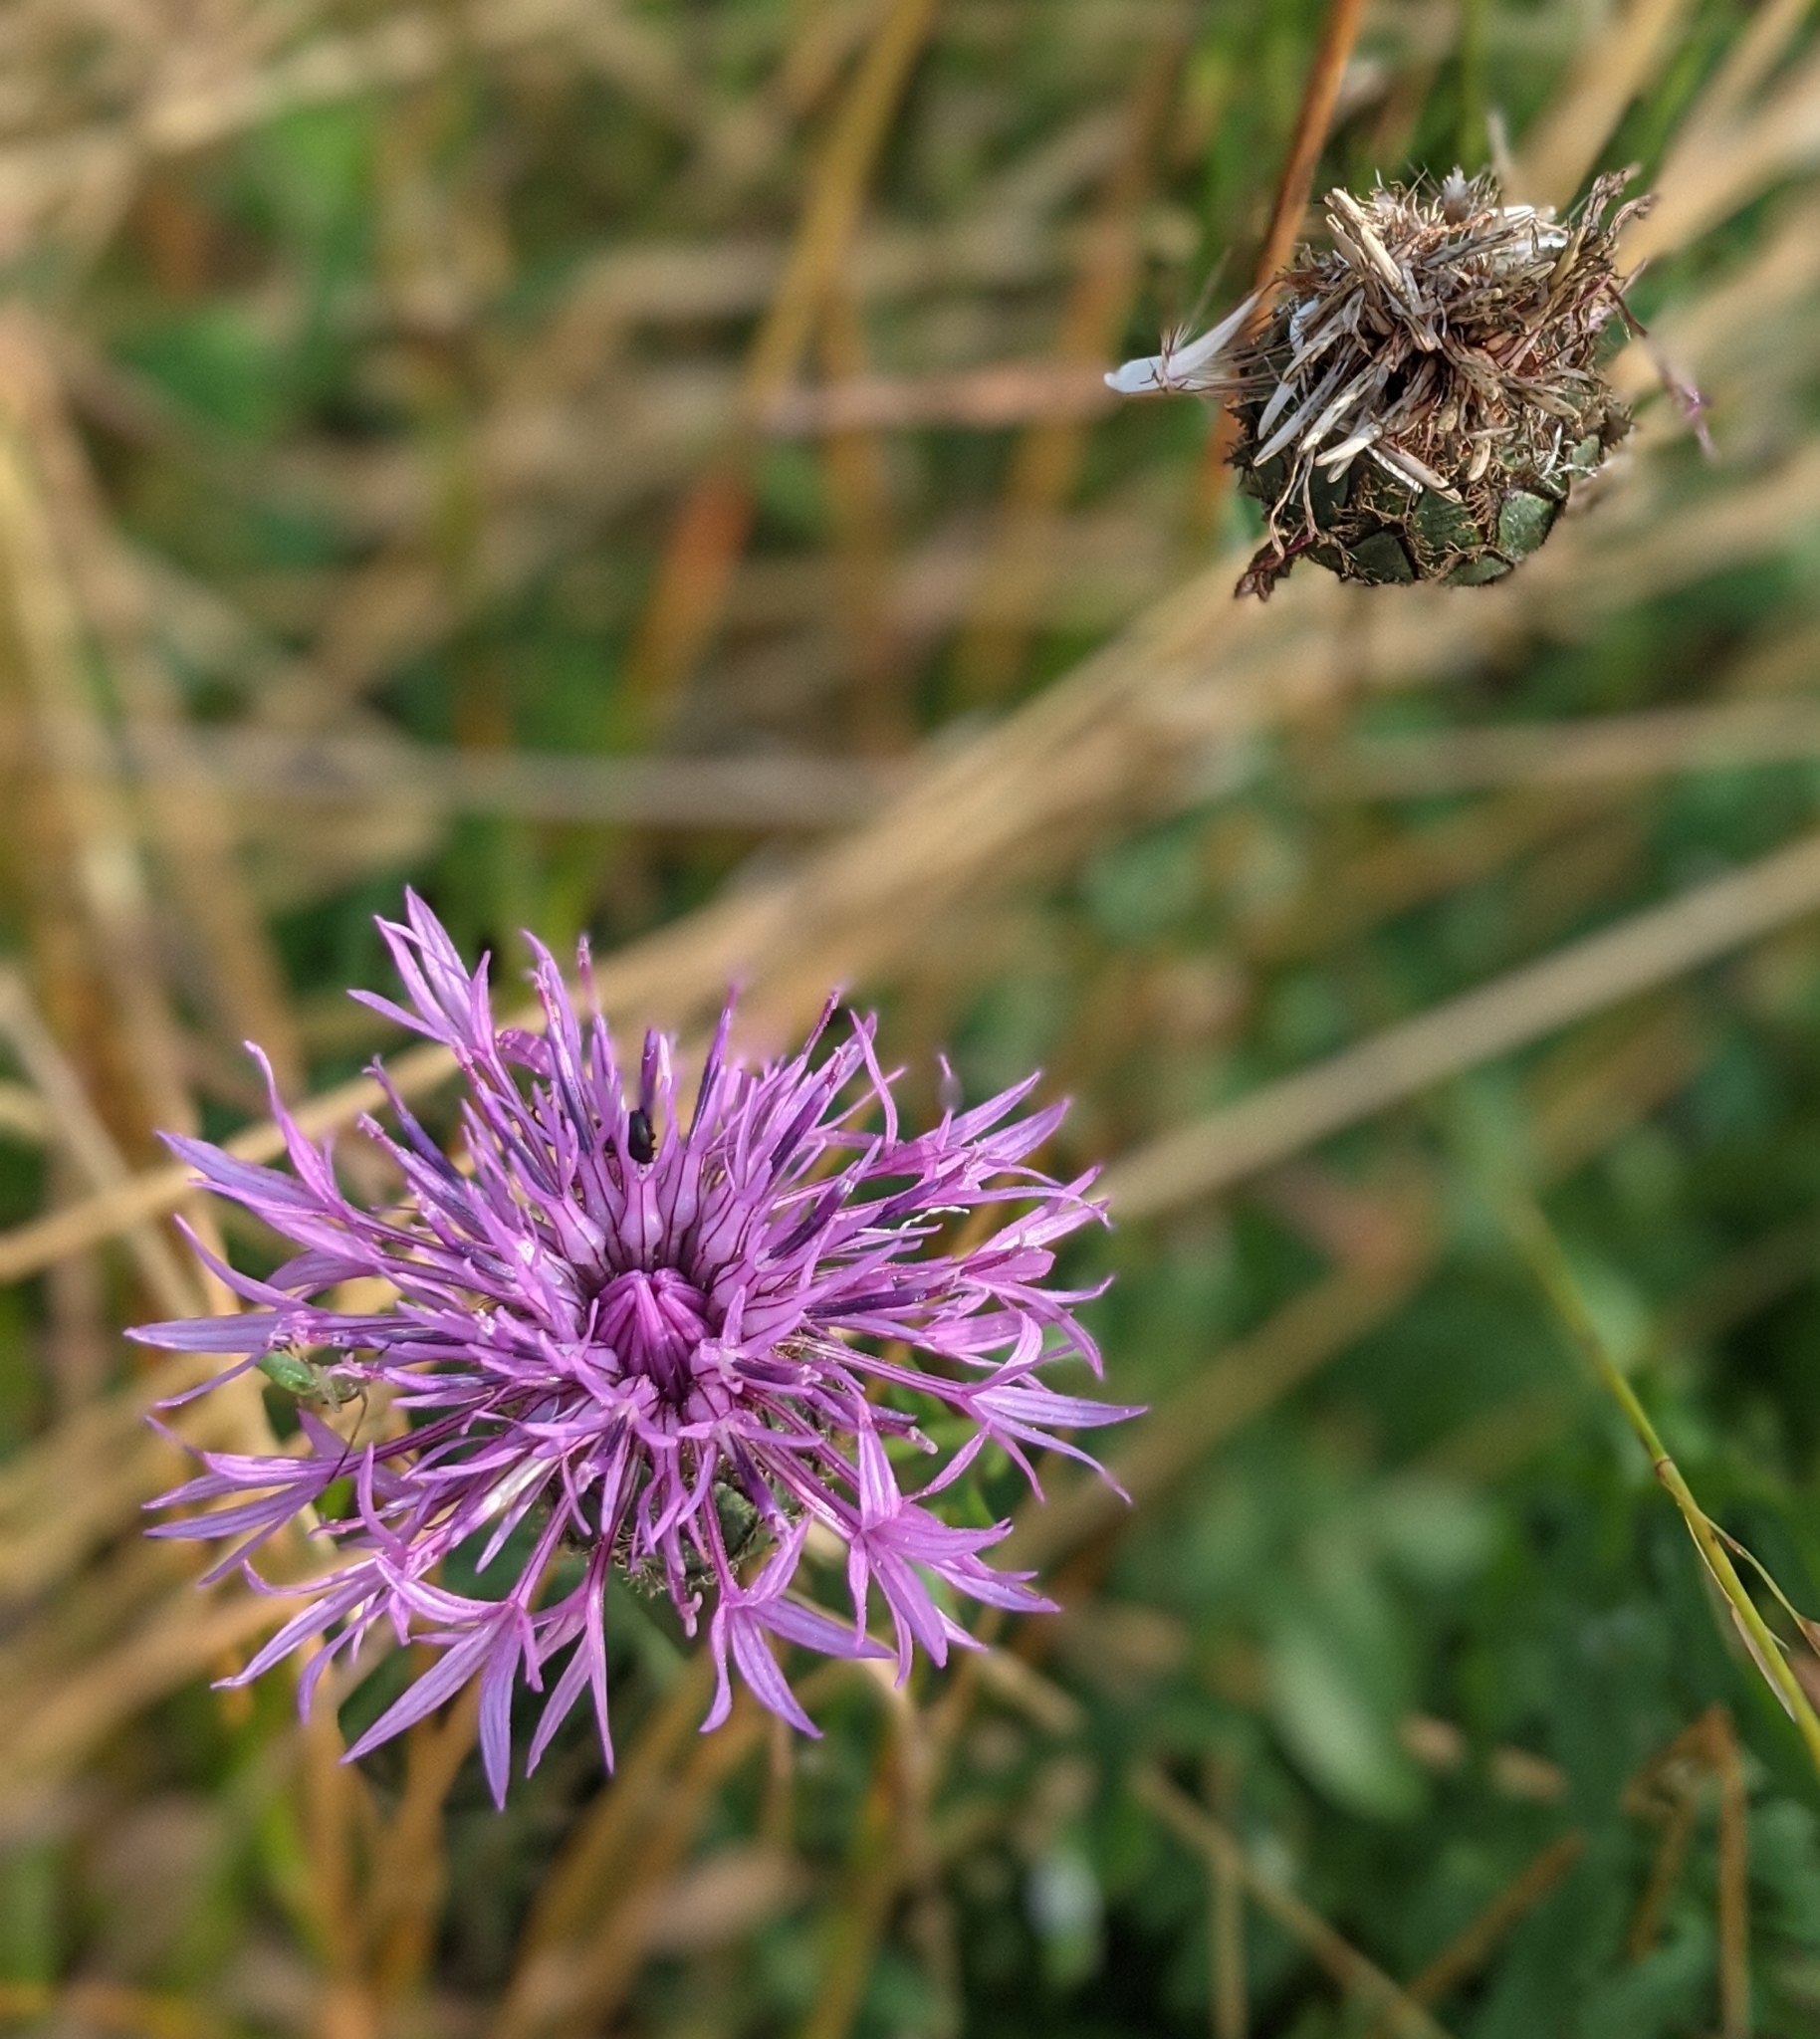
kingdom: Plantae
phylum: Tracheophyta
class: Magnoliopsida
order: Asterales
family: Asteraceae
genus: Centaurea
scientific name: Centaurea scabiosa
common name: Greater knapweed
